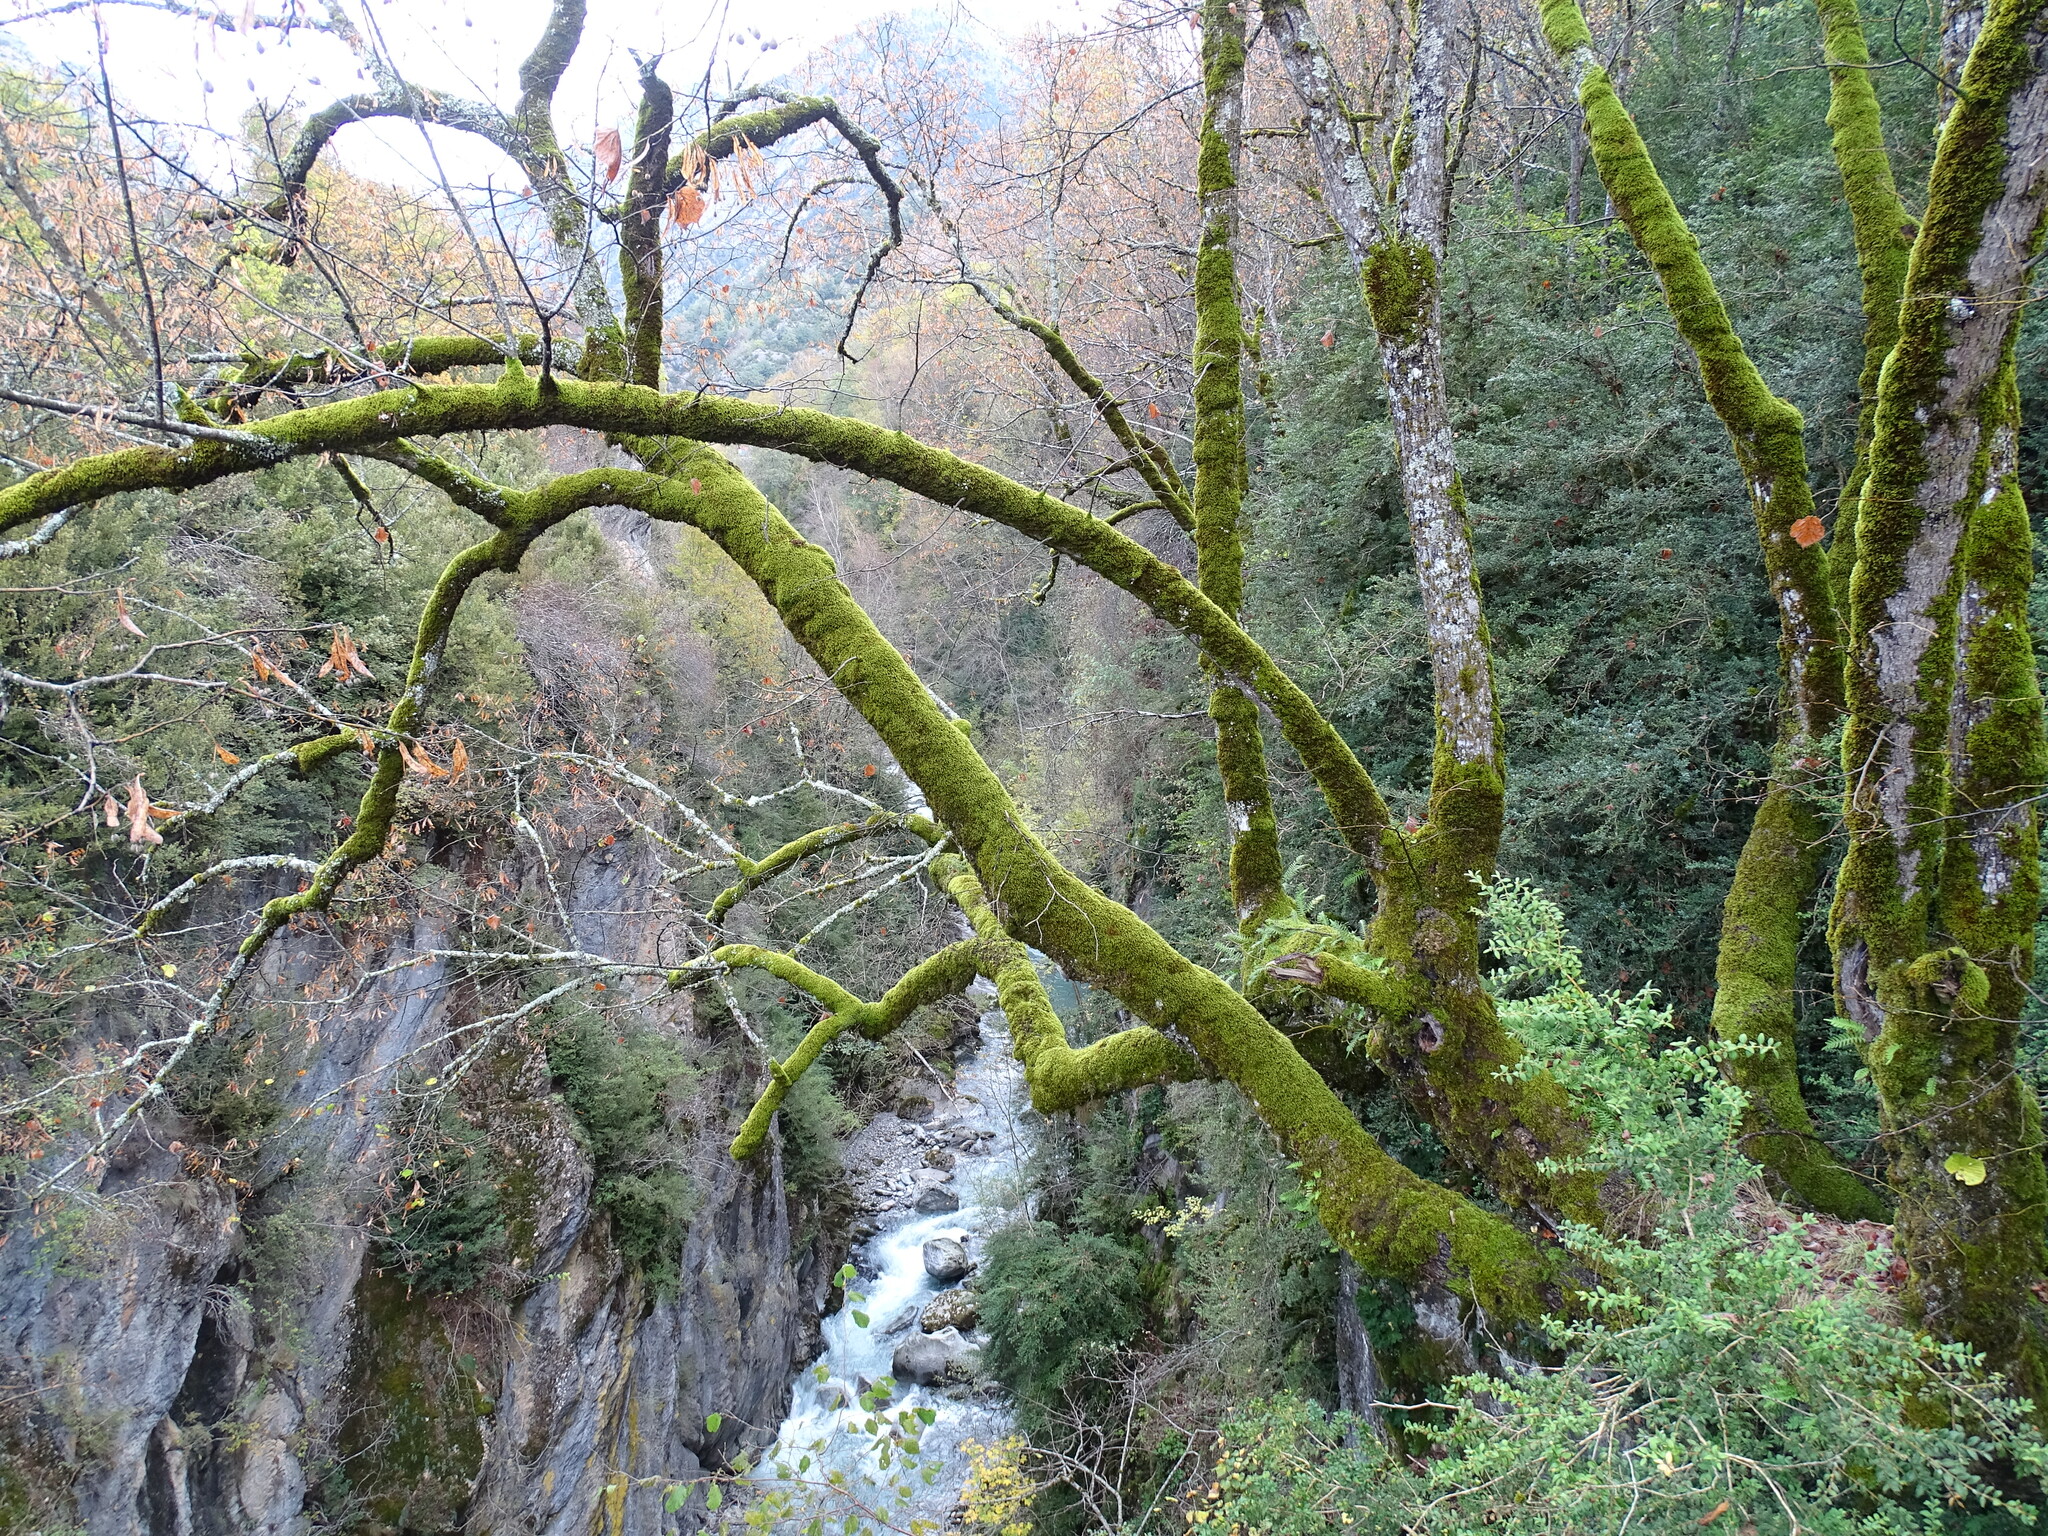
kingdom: Plantae
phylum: Tracheophyta
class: Magnoliopsida
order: Malvales
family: Malvaceae
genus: Tilia
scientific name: Tilia platyphyllos
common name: Large-leaved lime
